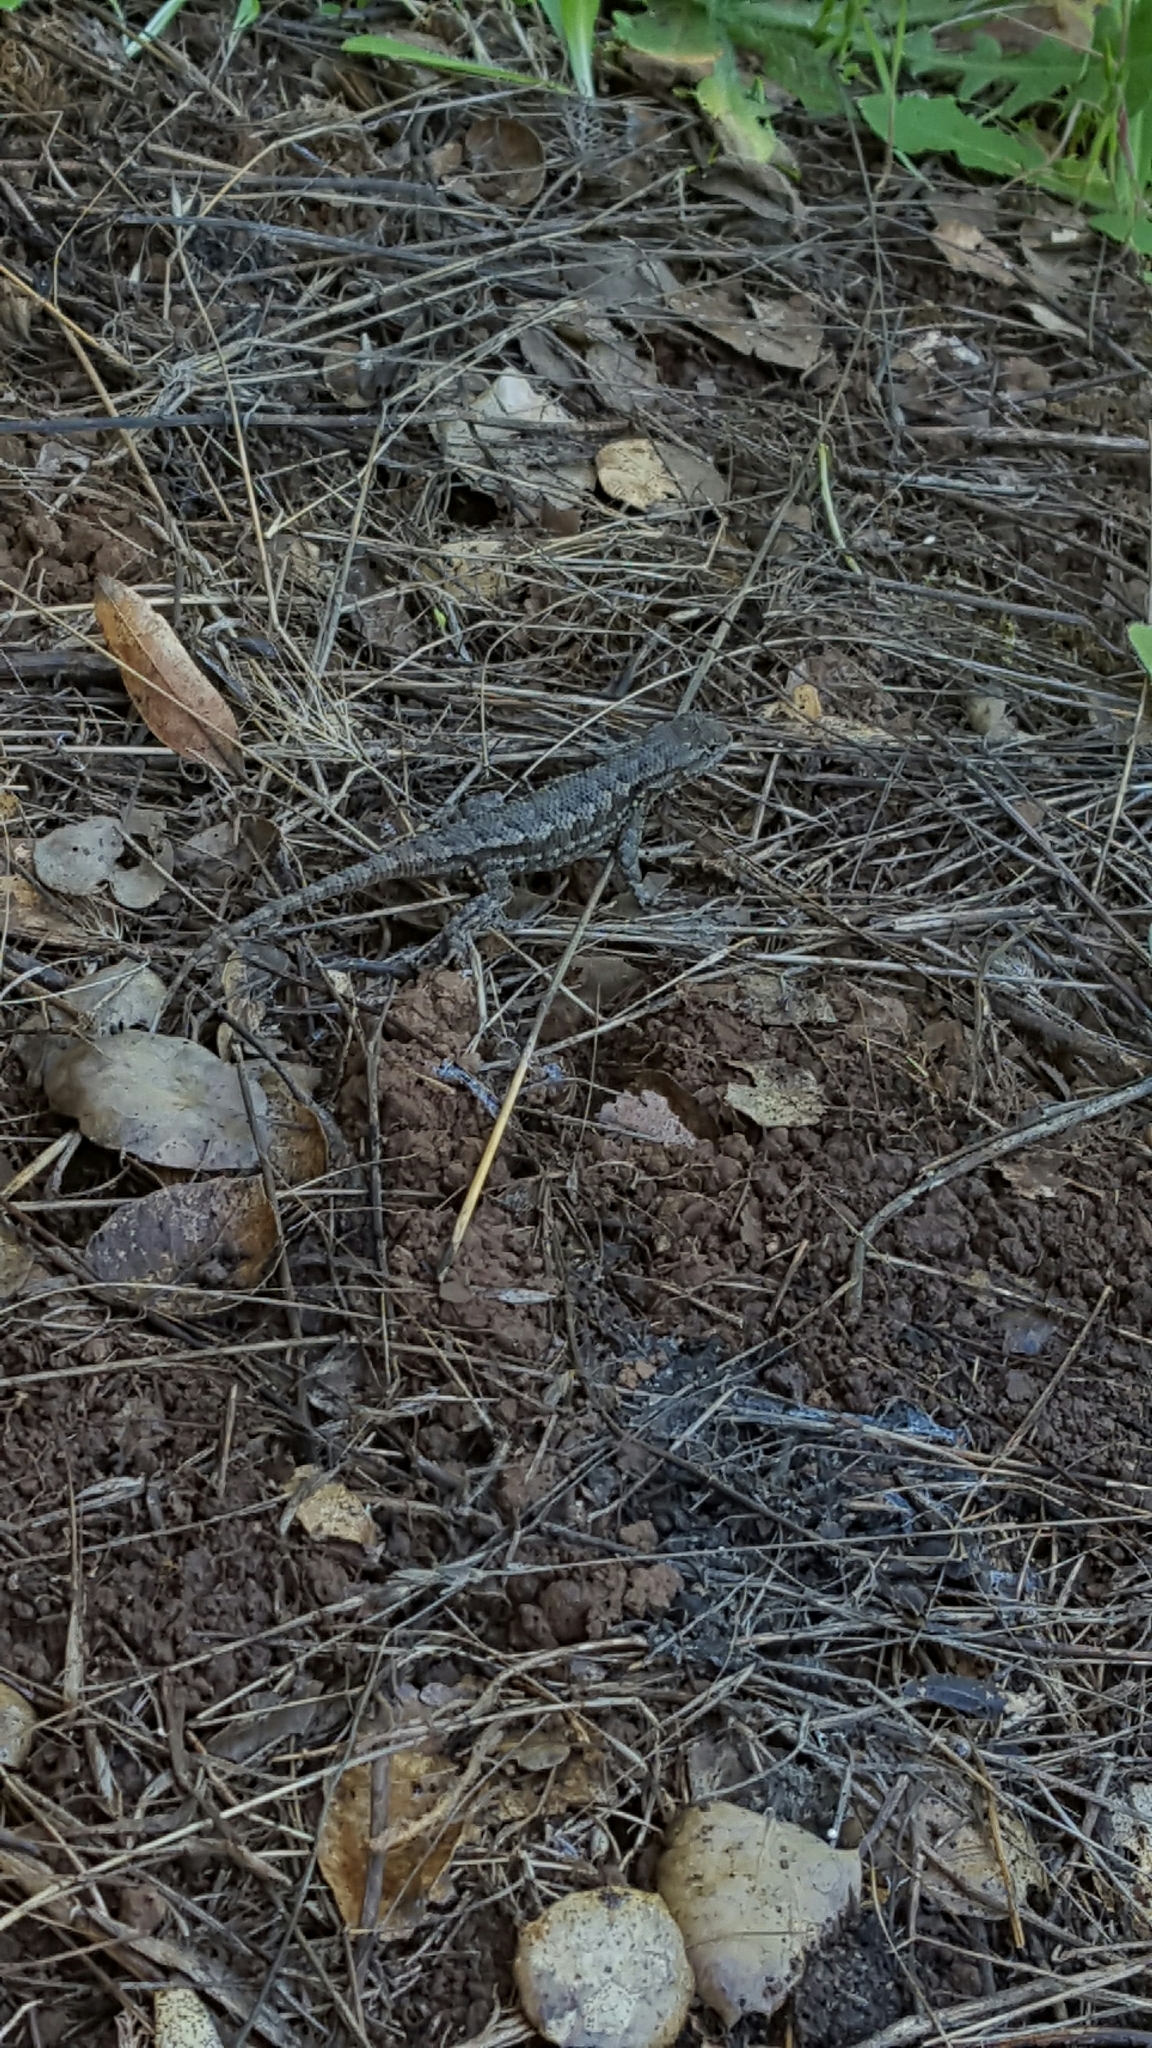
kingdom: Animalia
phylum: Chordata
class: Squamata
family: Phrynosomatidae
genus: Sceloporus
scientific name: Sceloporus occidentalis
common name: Western fence lizard
